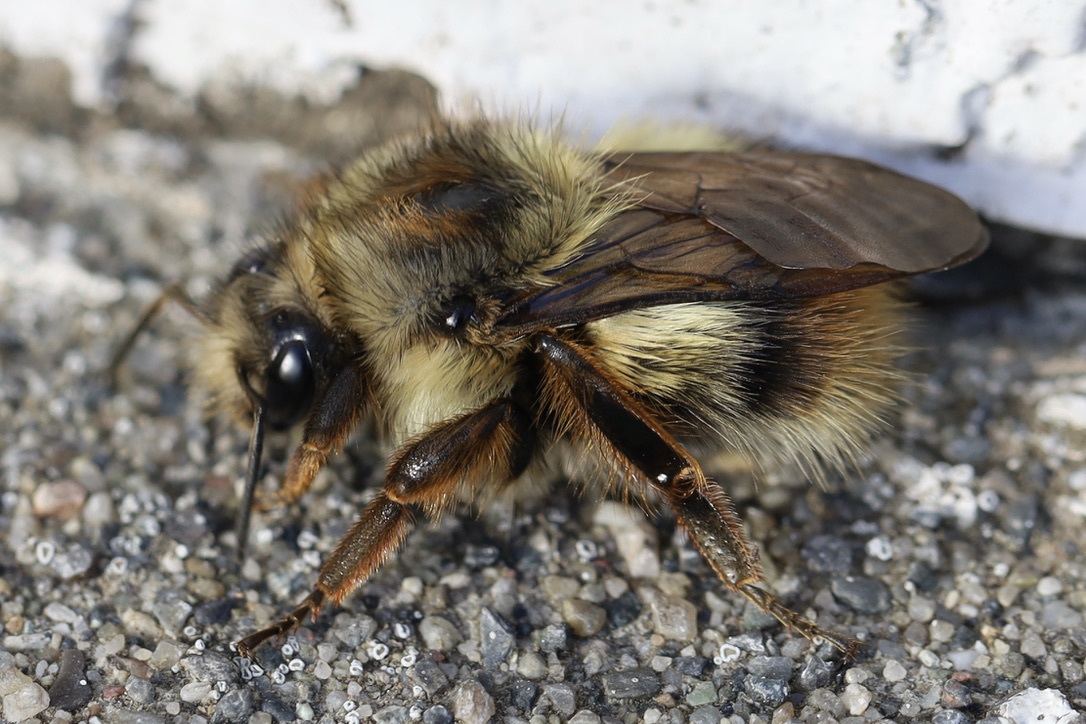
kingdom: Animalia
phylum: Arthropoda
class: Insecta
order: Hymenoptera
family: Apidae
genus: Bombus
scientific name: Bombus mixtus
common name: Fuzzy-horned bumble bee
